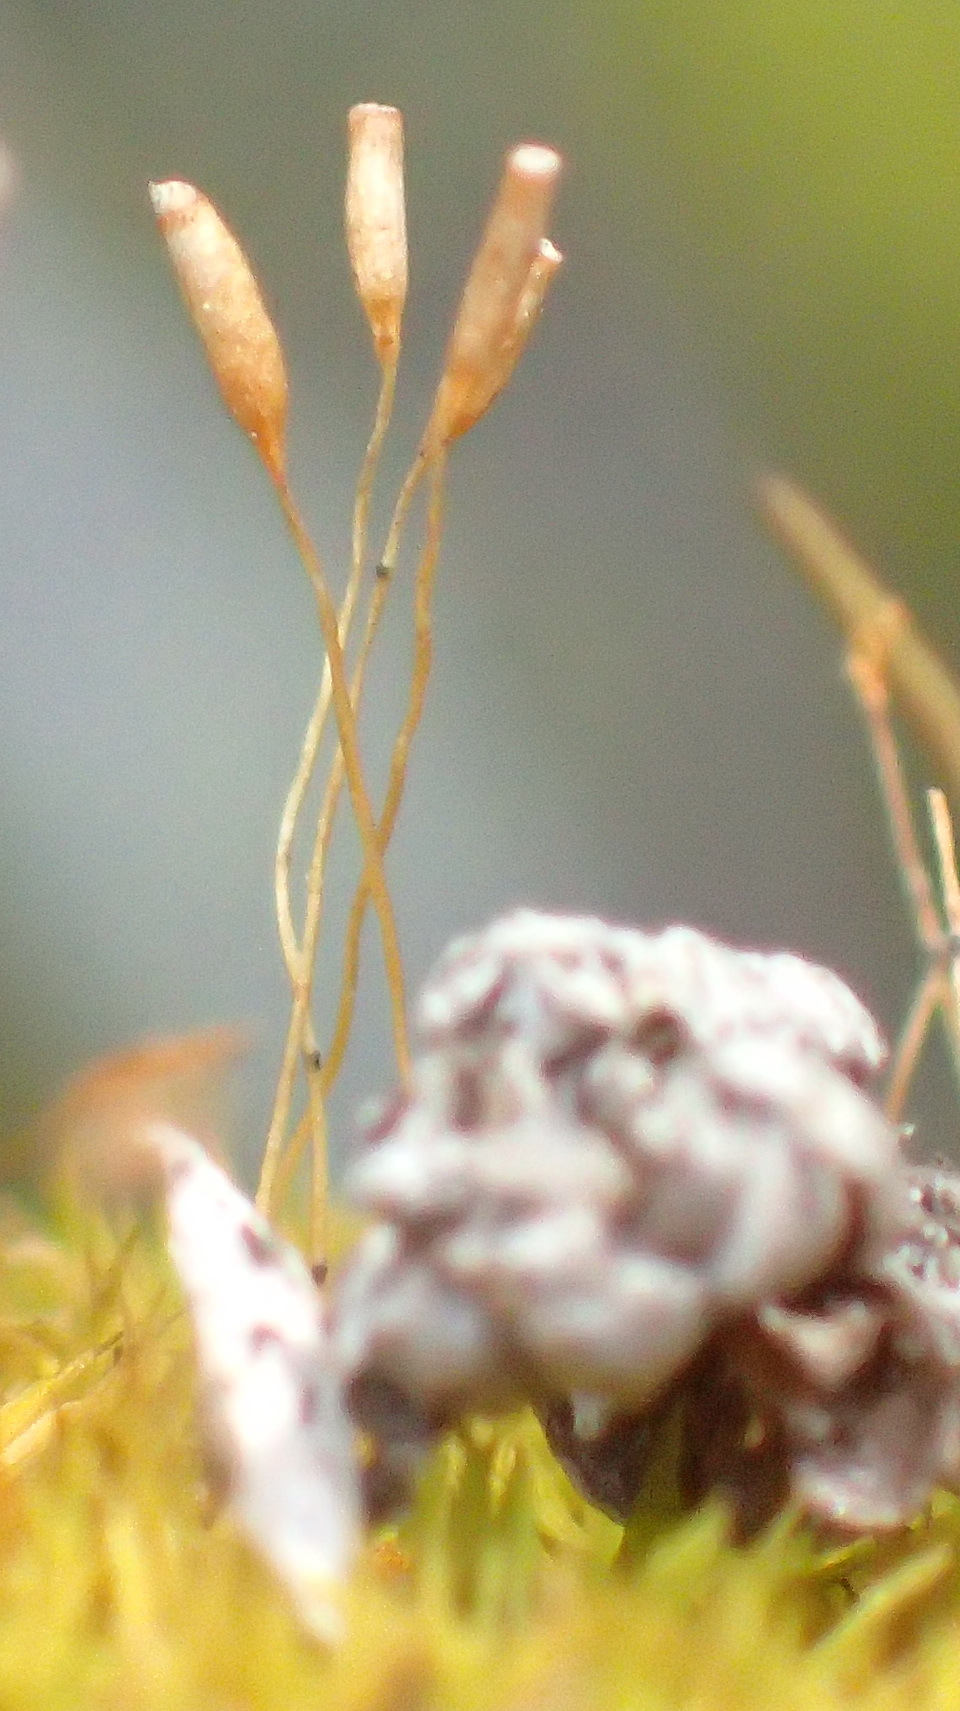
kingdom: Plantae
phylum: Bryophyta
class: Bryopsida
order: Pottiales
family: Pottiaceae
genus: Tortella
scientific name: Tortella xanthocarpa
